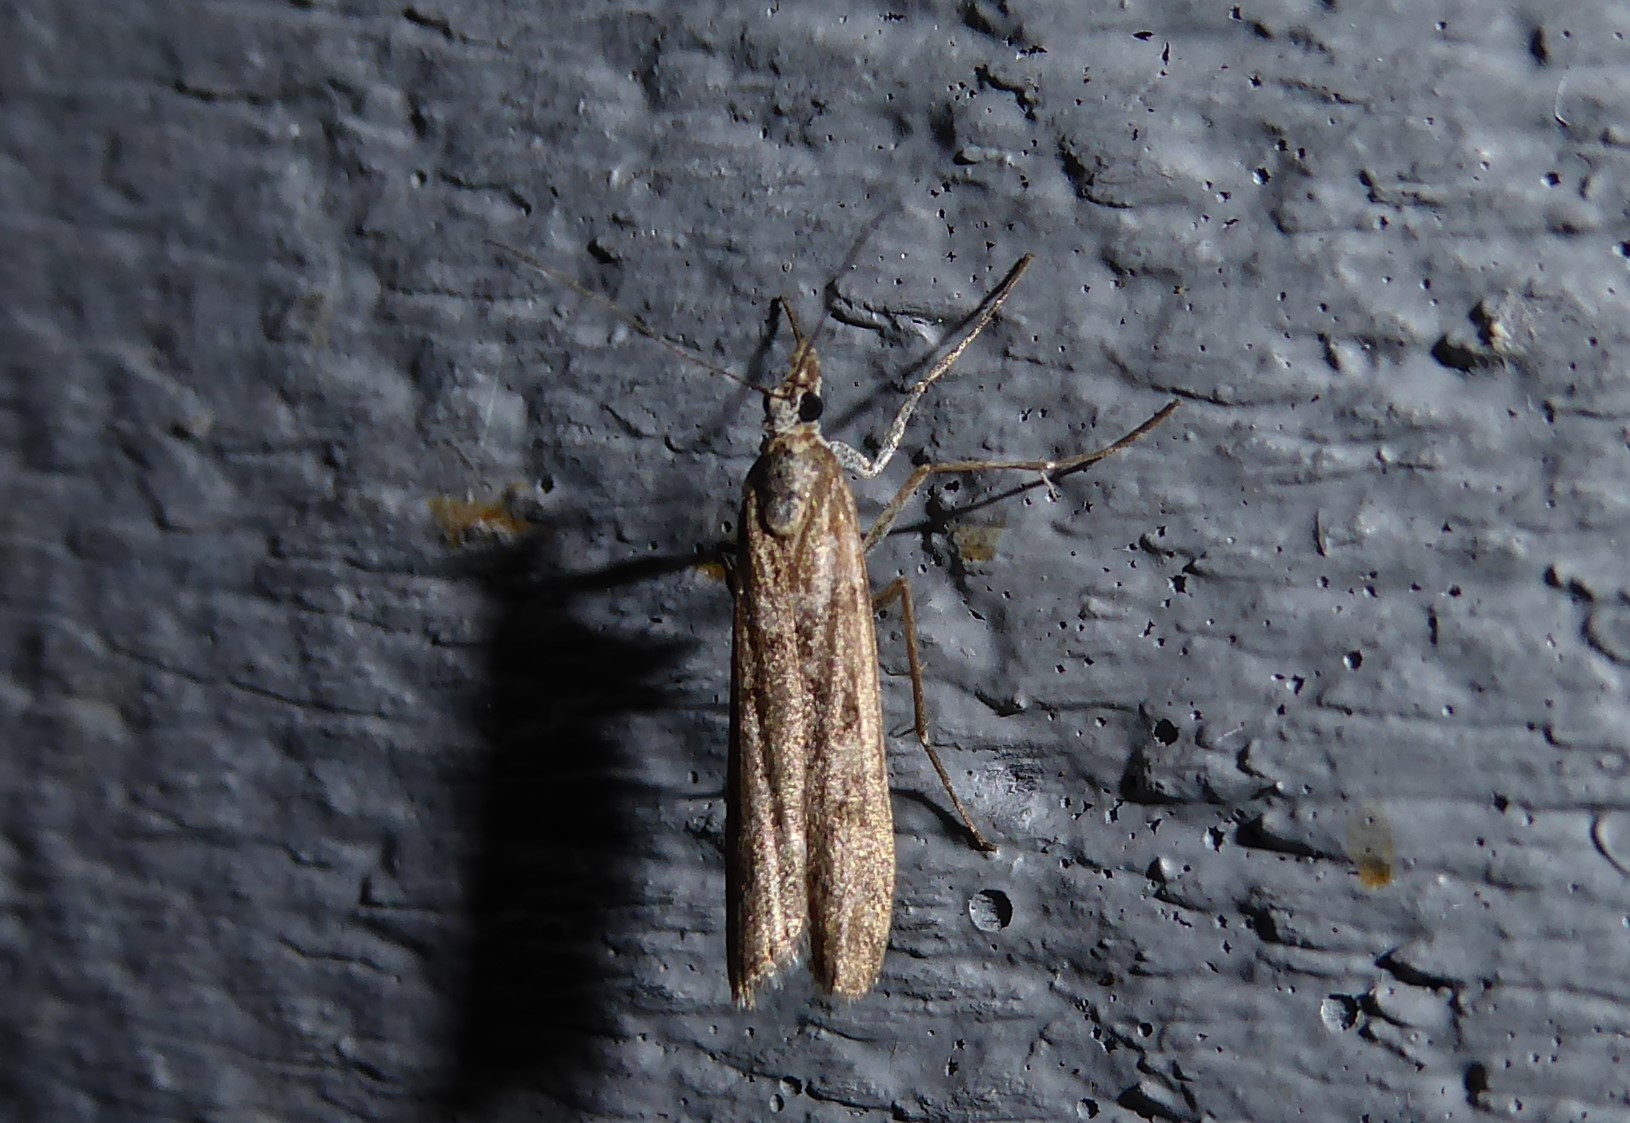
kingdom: Animalia
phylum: Arthropoda
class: Insecta
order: Lepidoptera
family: Crambidae
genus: Eudonia
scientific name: Eudonia leptalea
